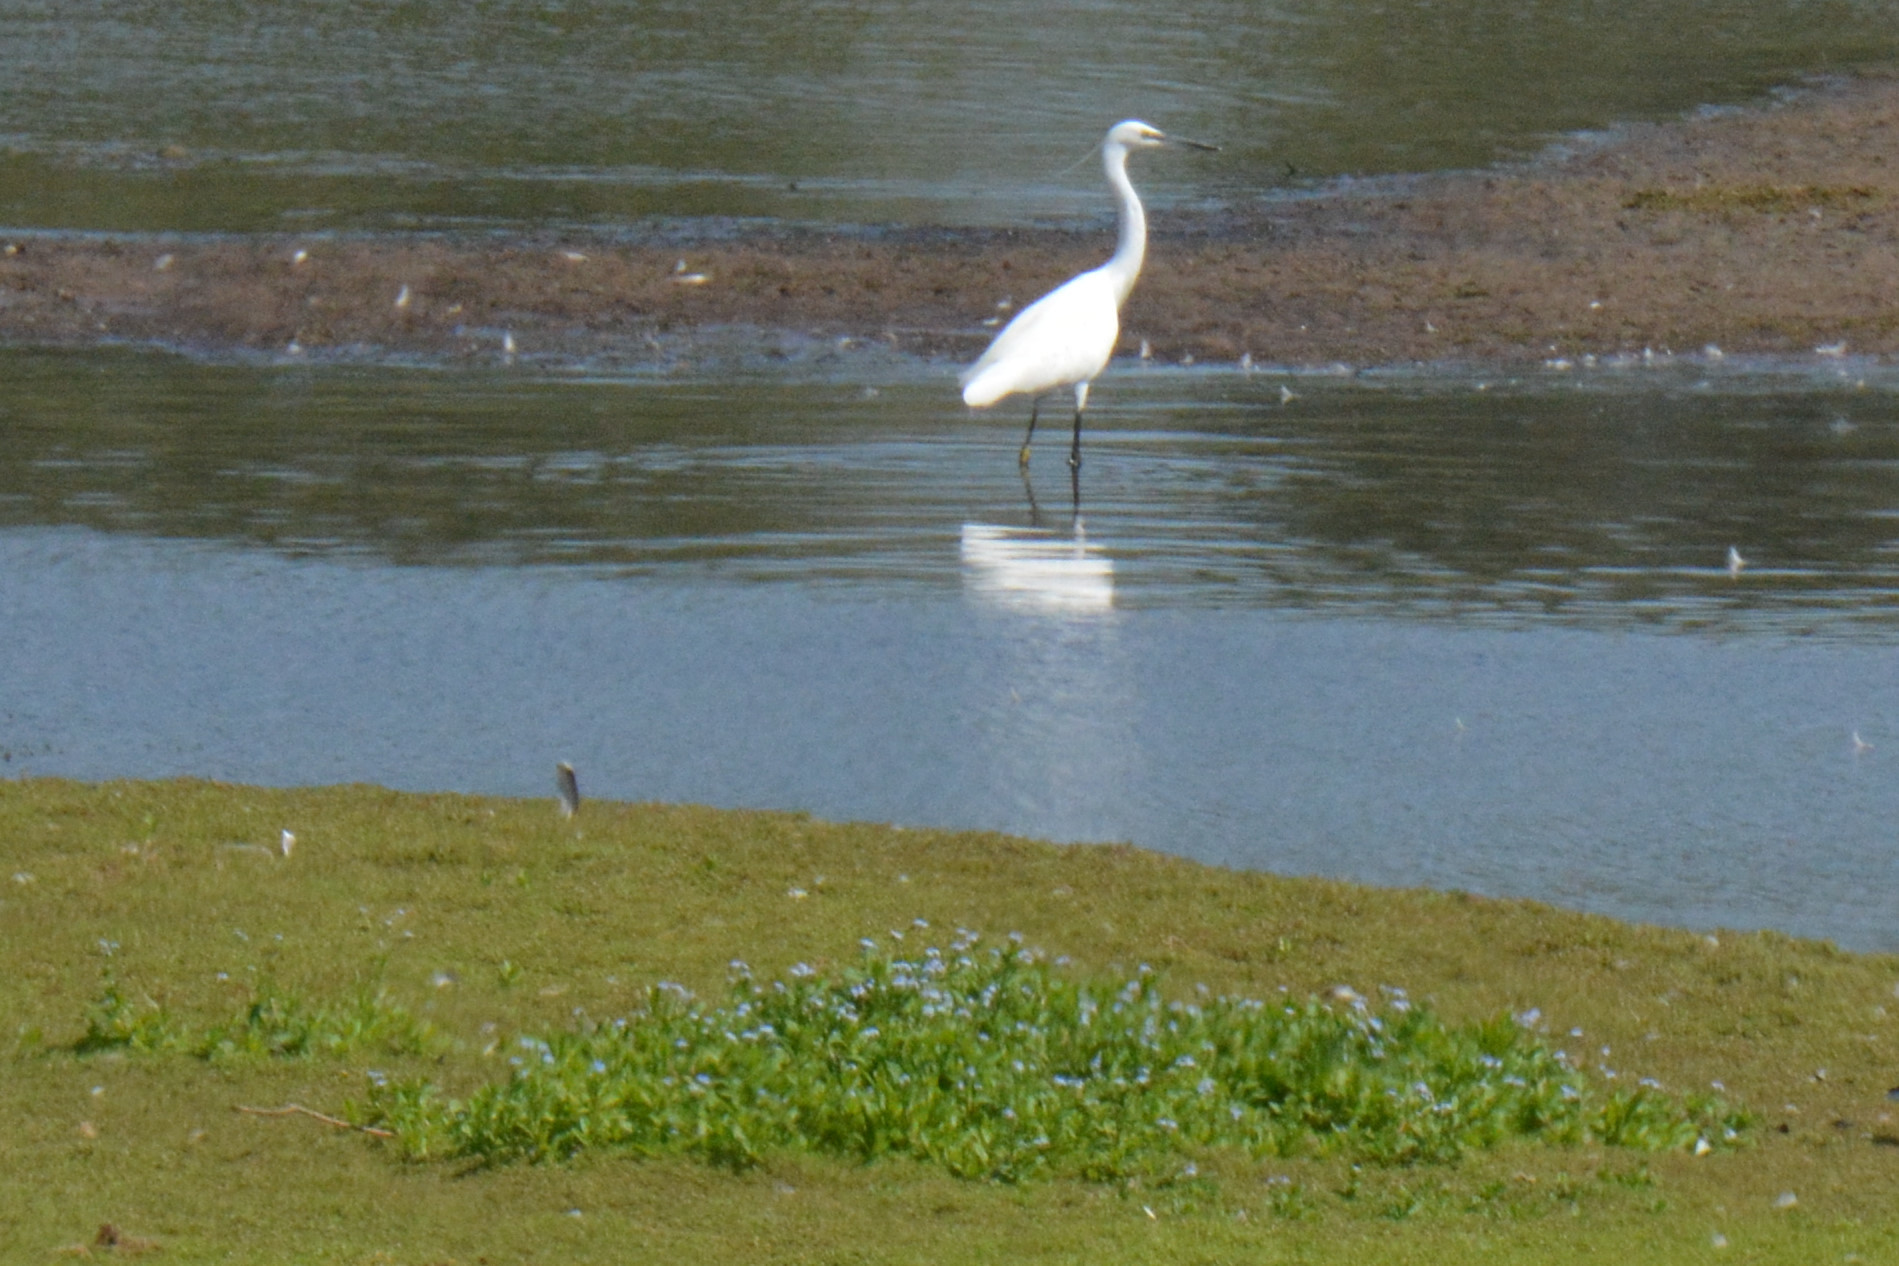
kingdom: Animalia
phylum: Chordata
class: Aves
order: Pelecaniformes
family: Ardeidae
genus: Egretta
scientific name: Egretta garzetta
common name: Little egret
